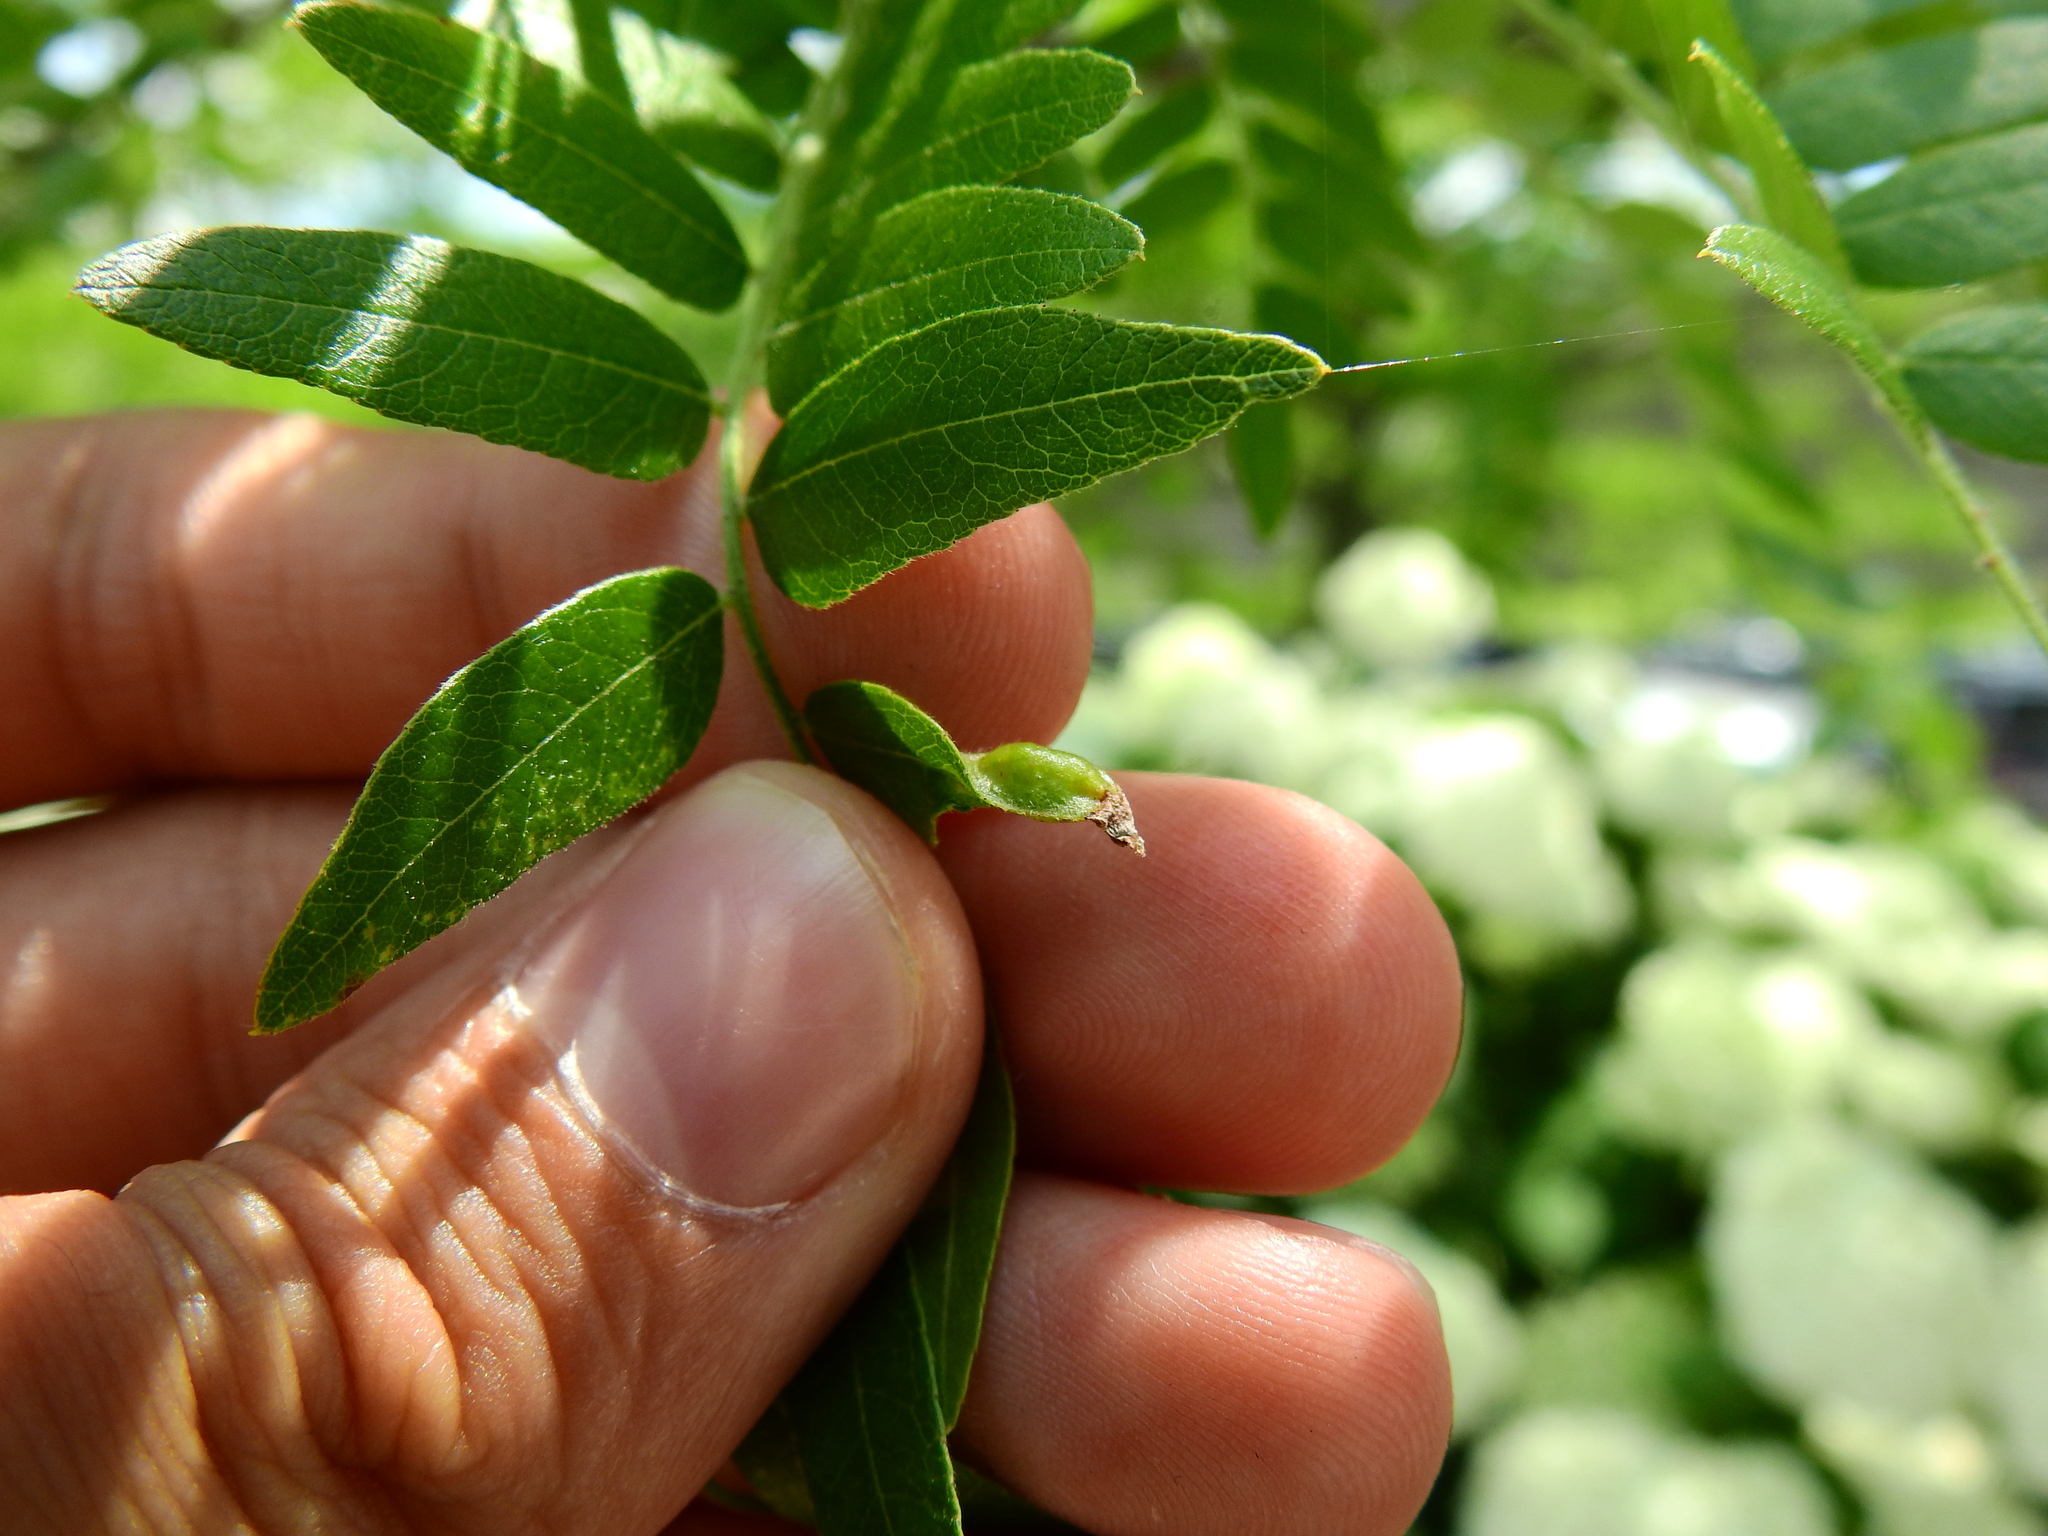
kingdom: Animalia
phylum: Arthropoda
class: Insecta
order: Diptera
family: Cecidomyiidae
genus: Dasineura
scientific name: Dasineura gleditchiae
